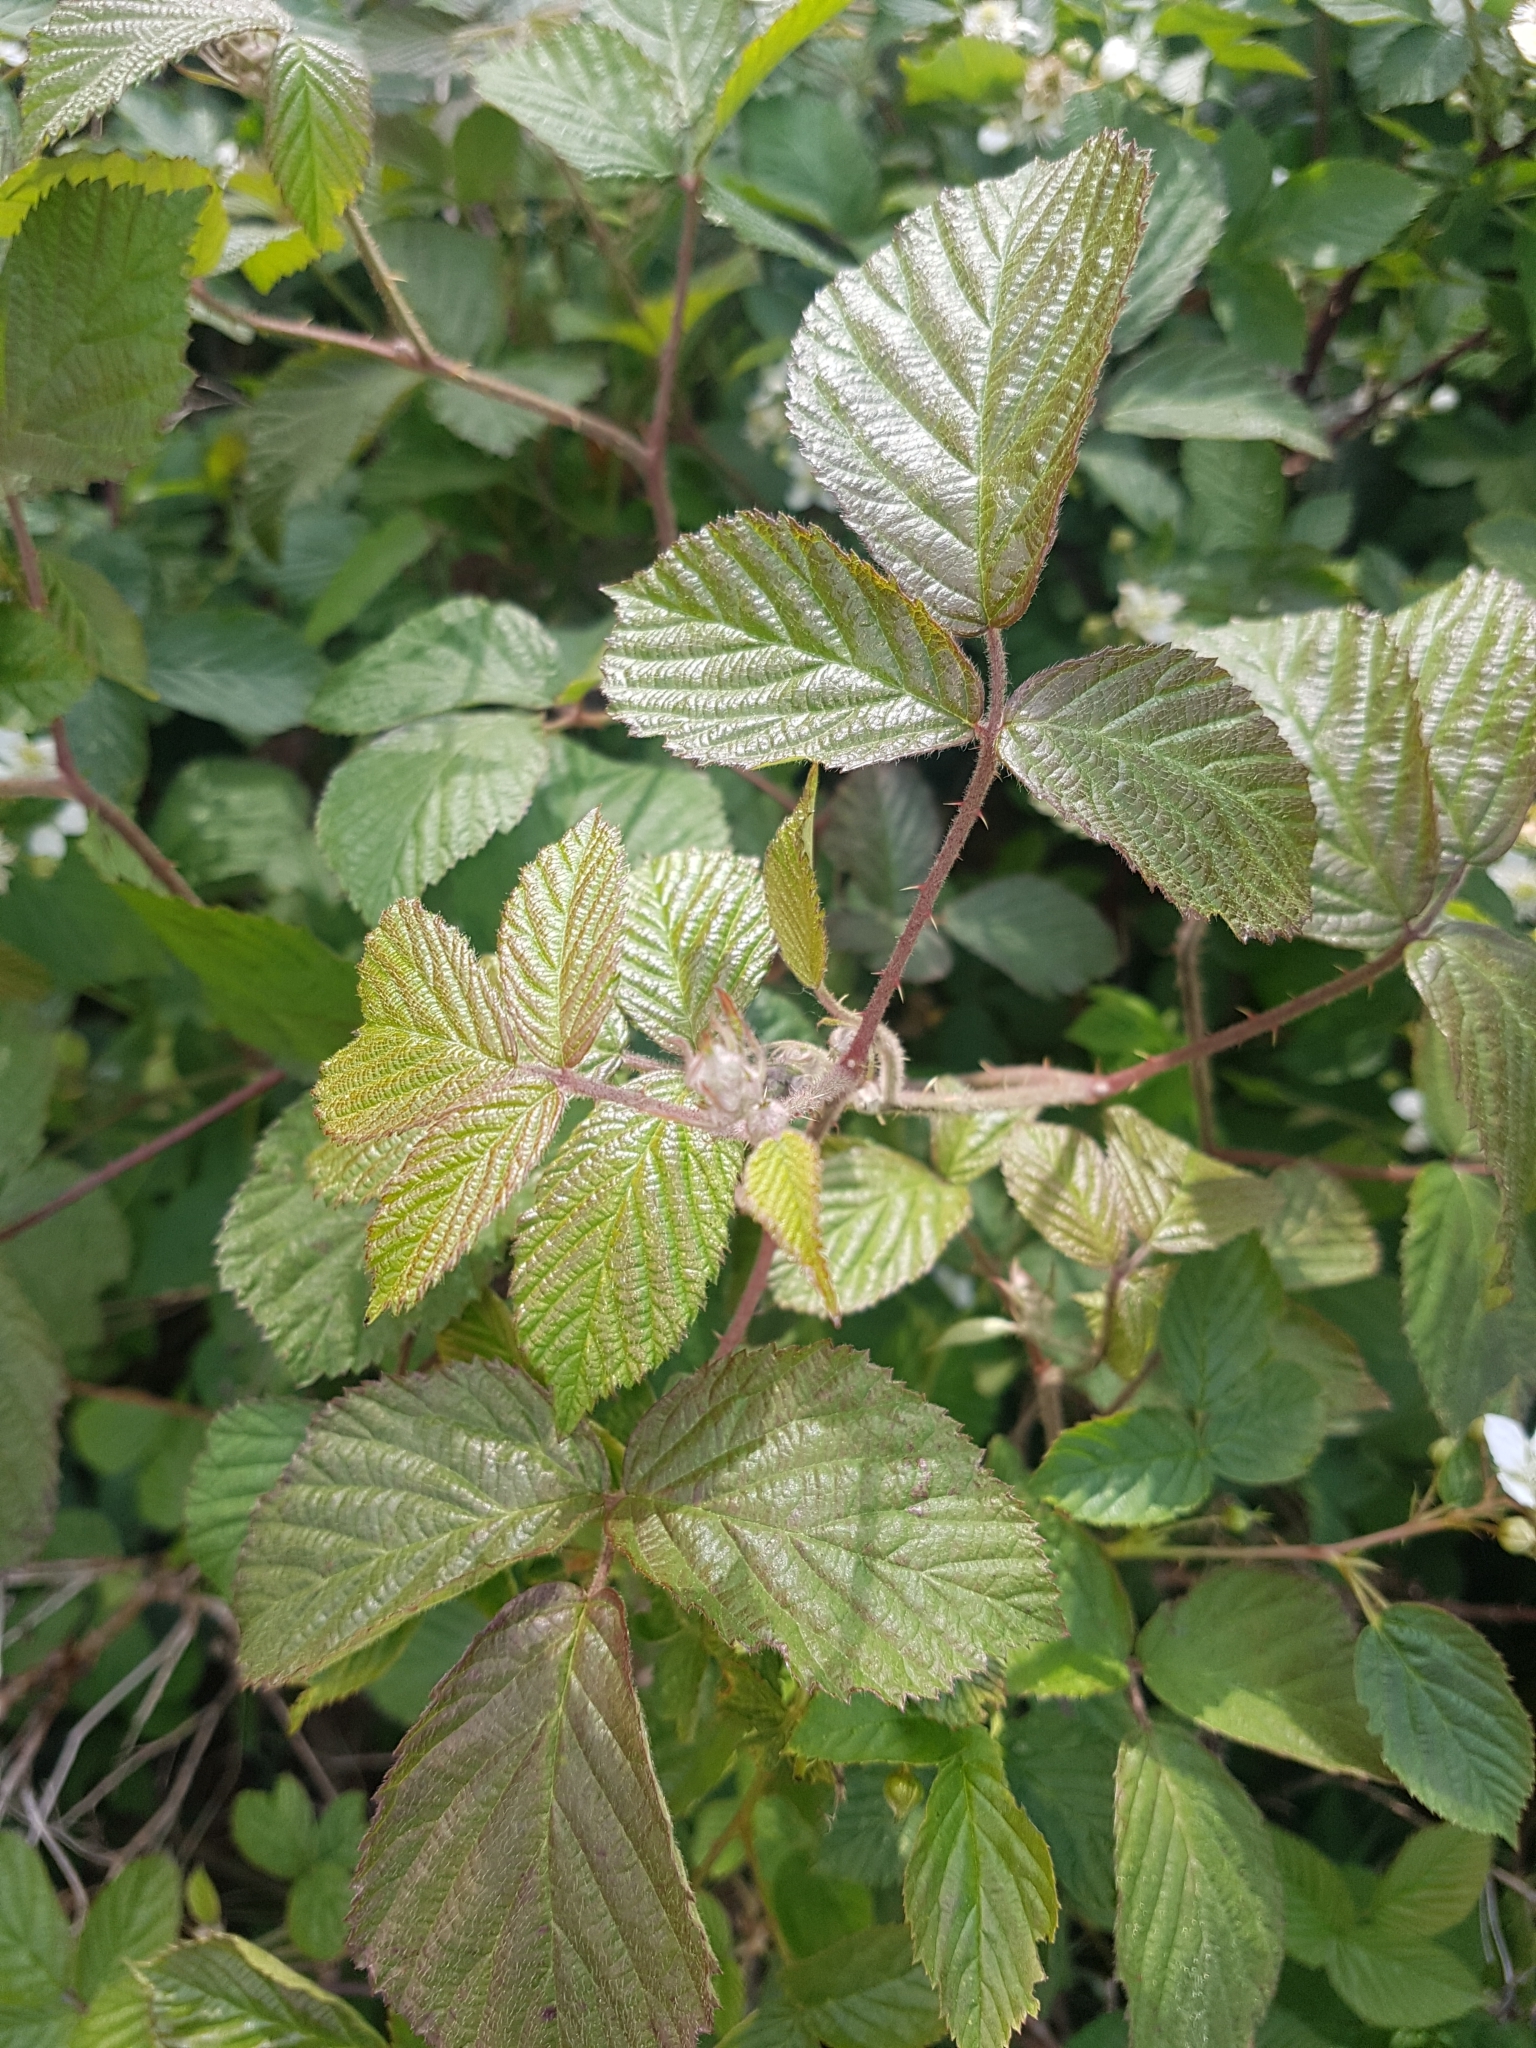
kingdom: Plantae
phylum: Tracheophyta
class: Magnoliopsida
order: Rosales
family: Rosaceae
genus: Rubus
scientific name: Rubus caesius
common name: Dewberry
